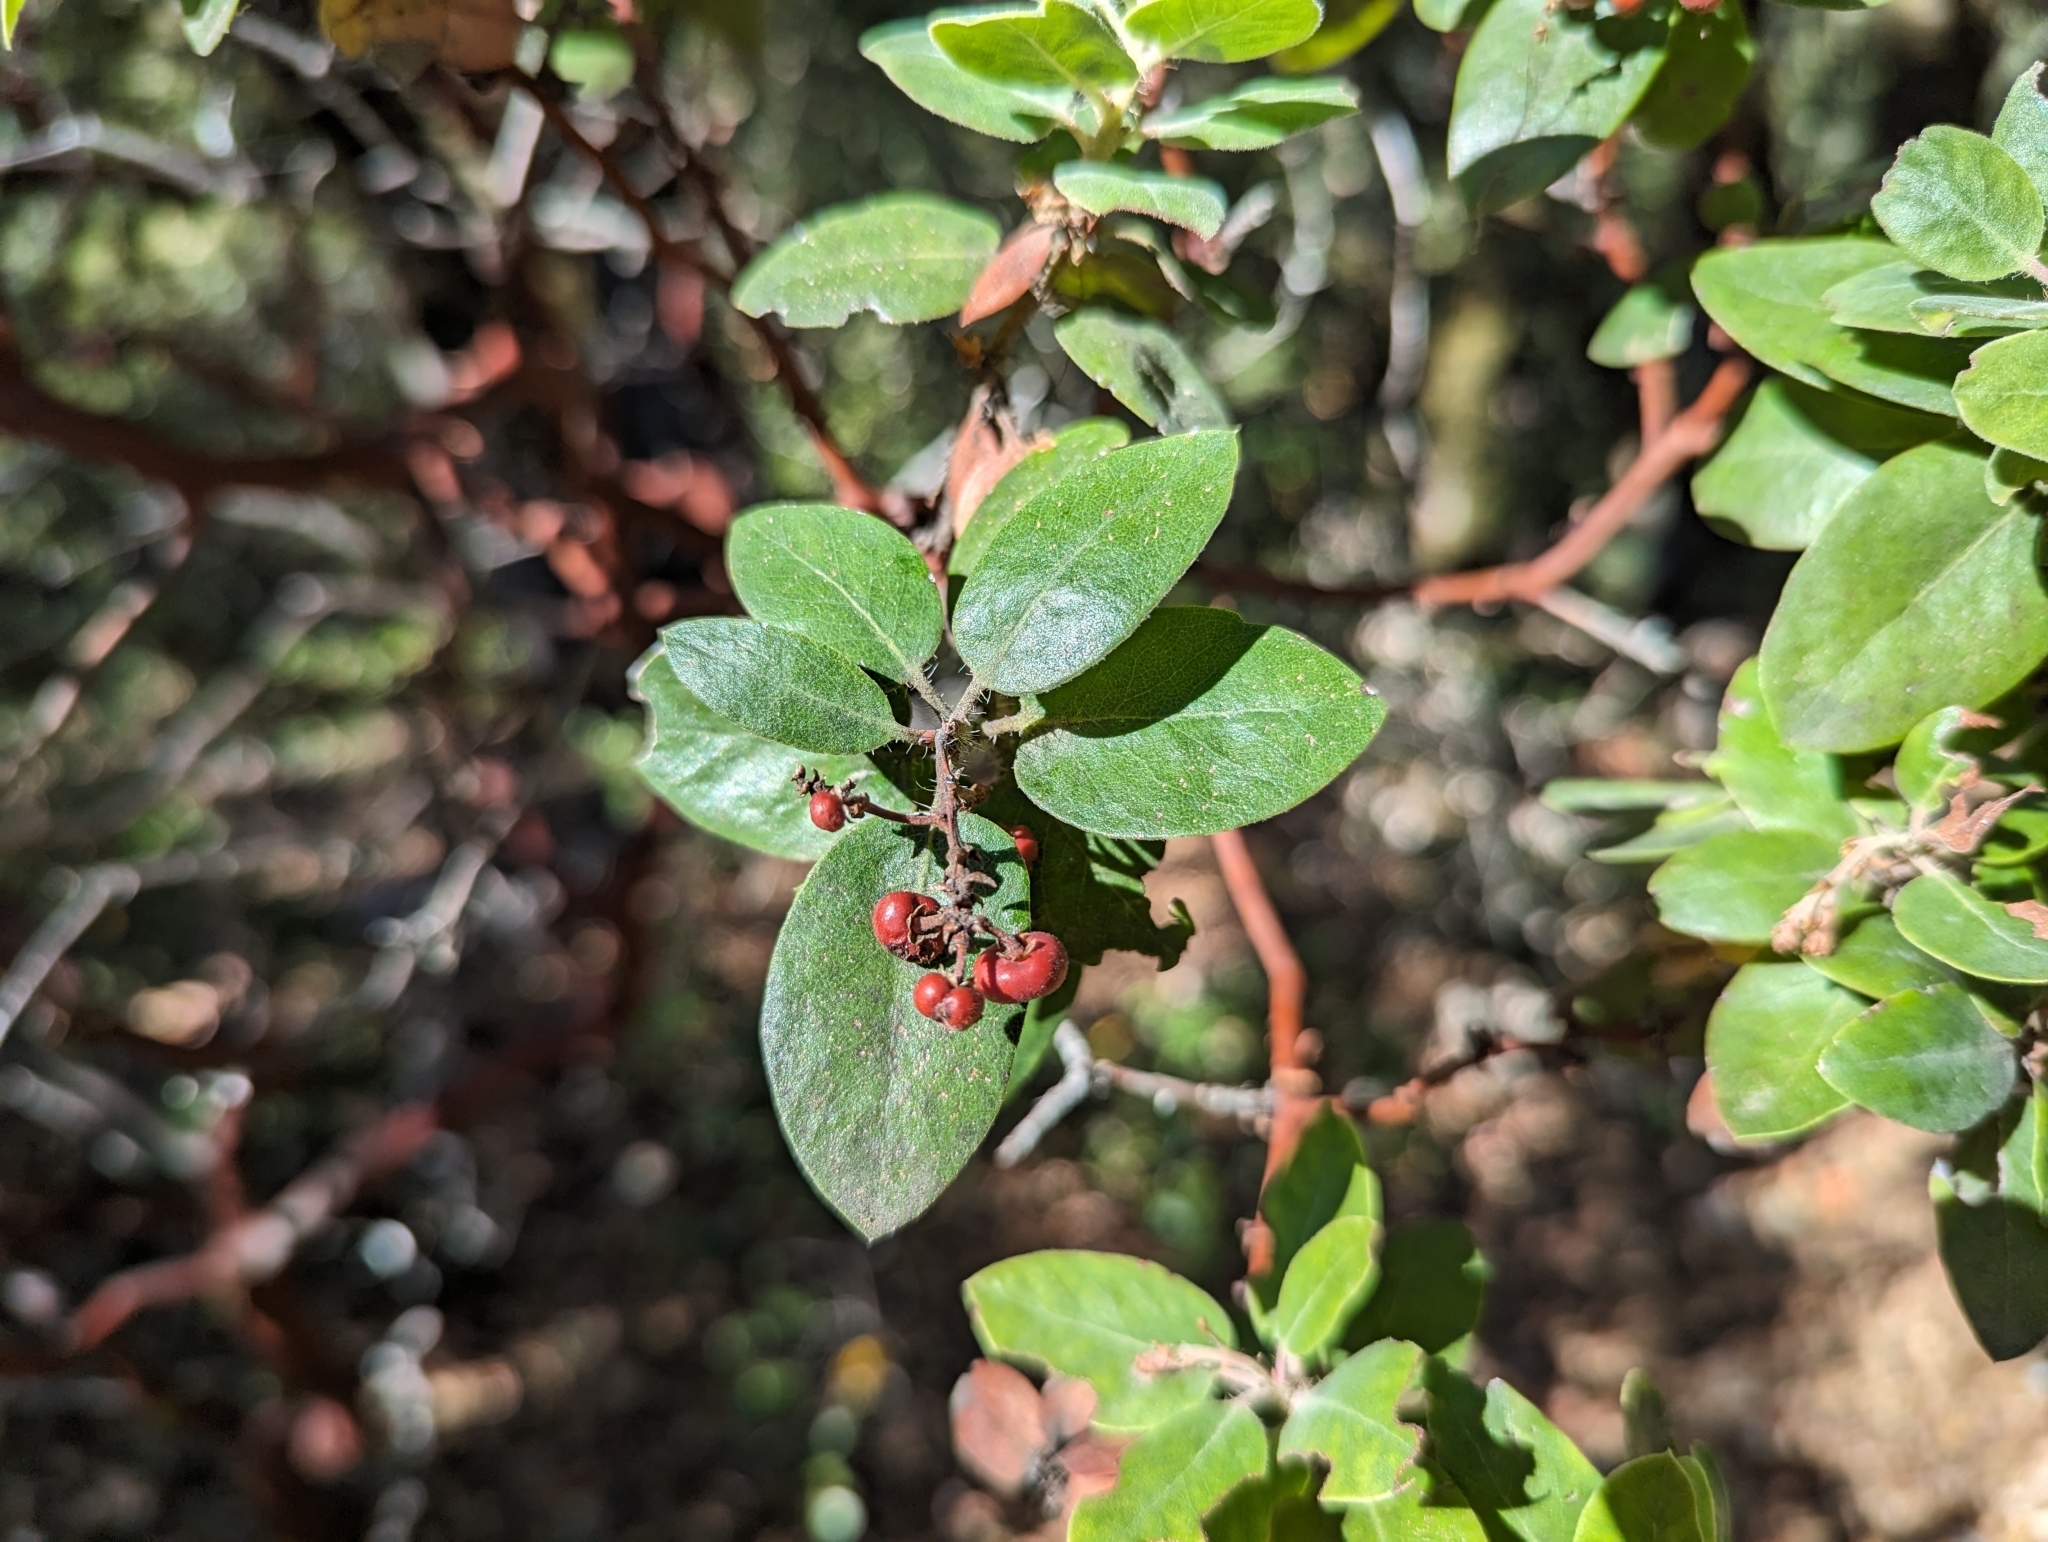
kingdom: Plantae
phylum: Tracheophyta
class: Magnoliopsida
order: Ericales
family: Ericaceae
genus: Arctostaphylos
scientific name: Arctostaphylos crustacea
